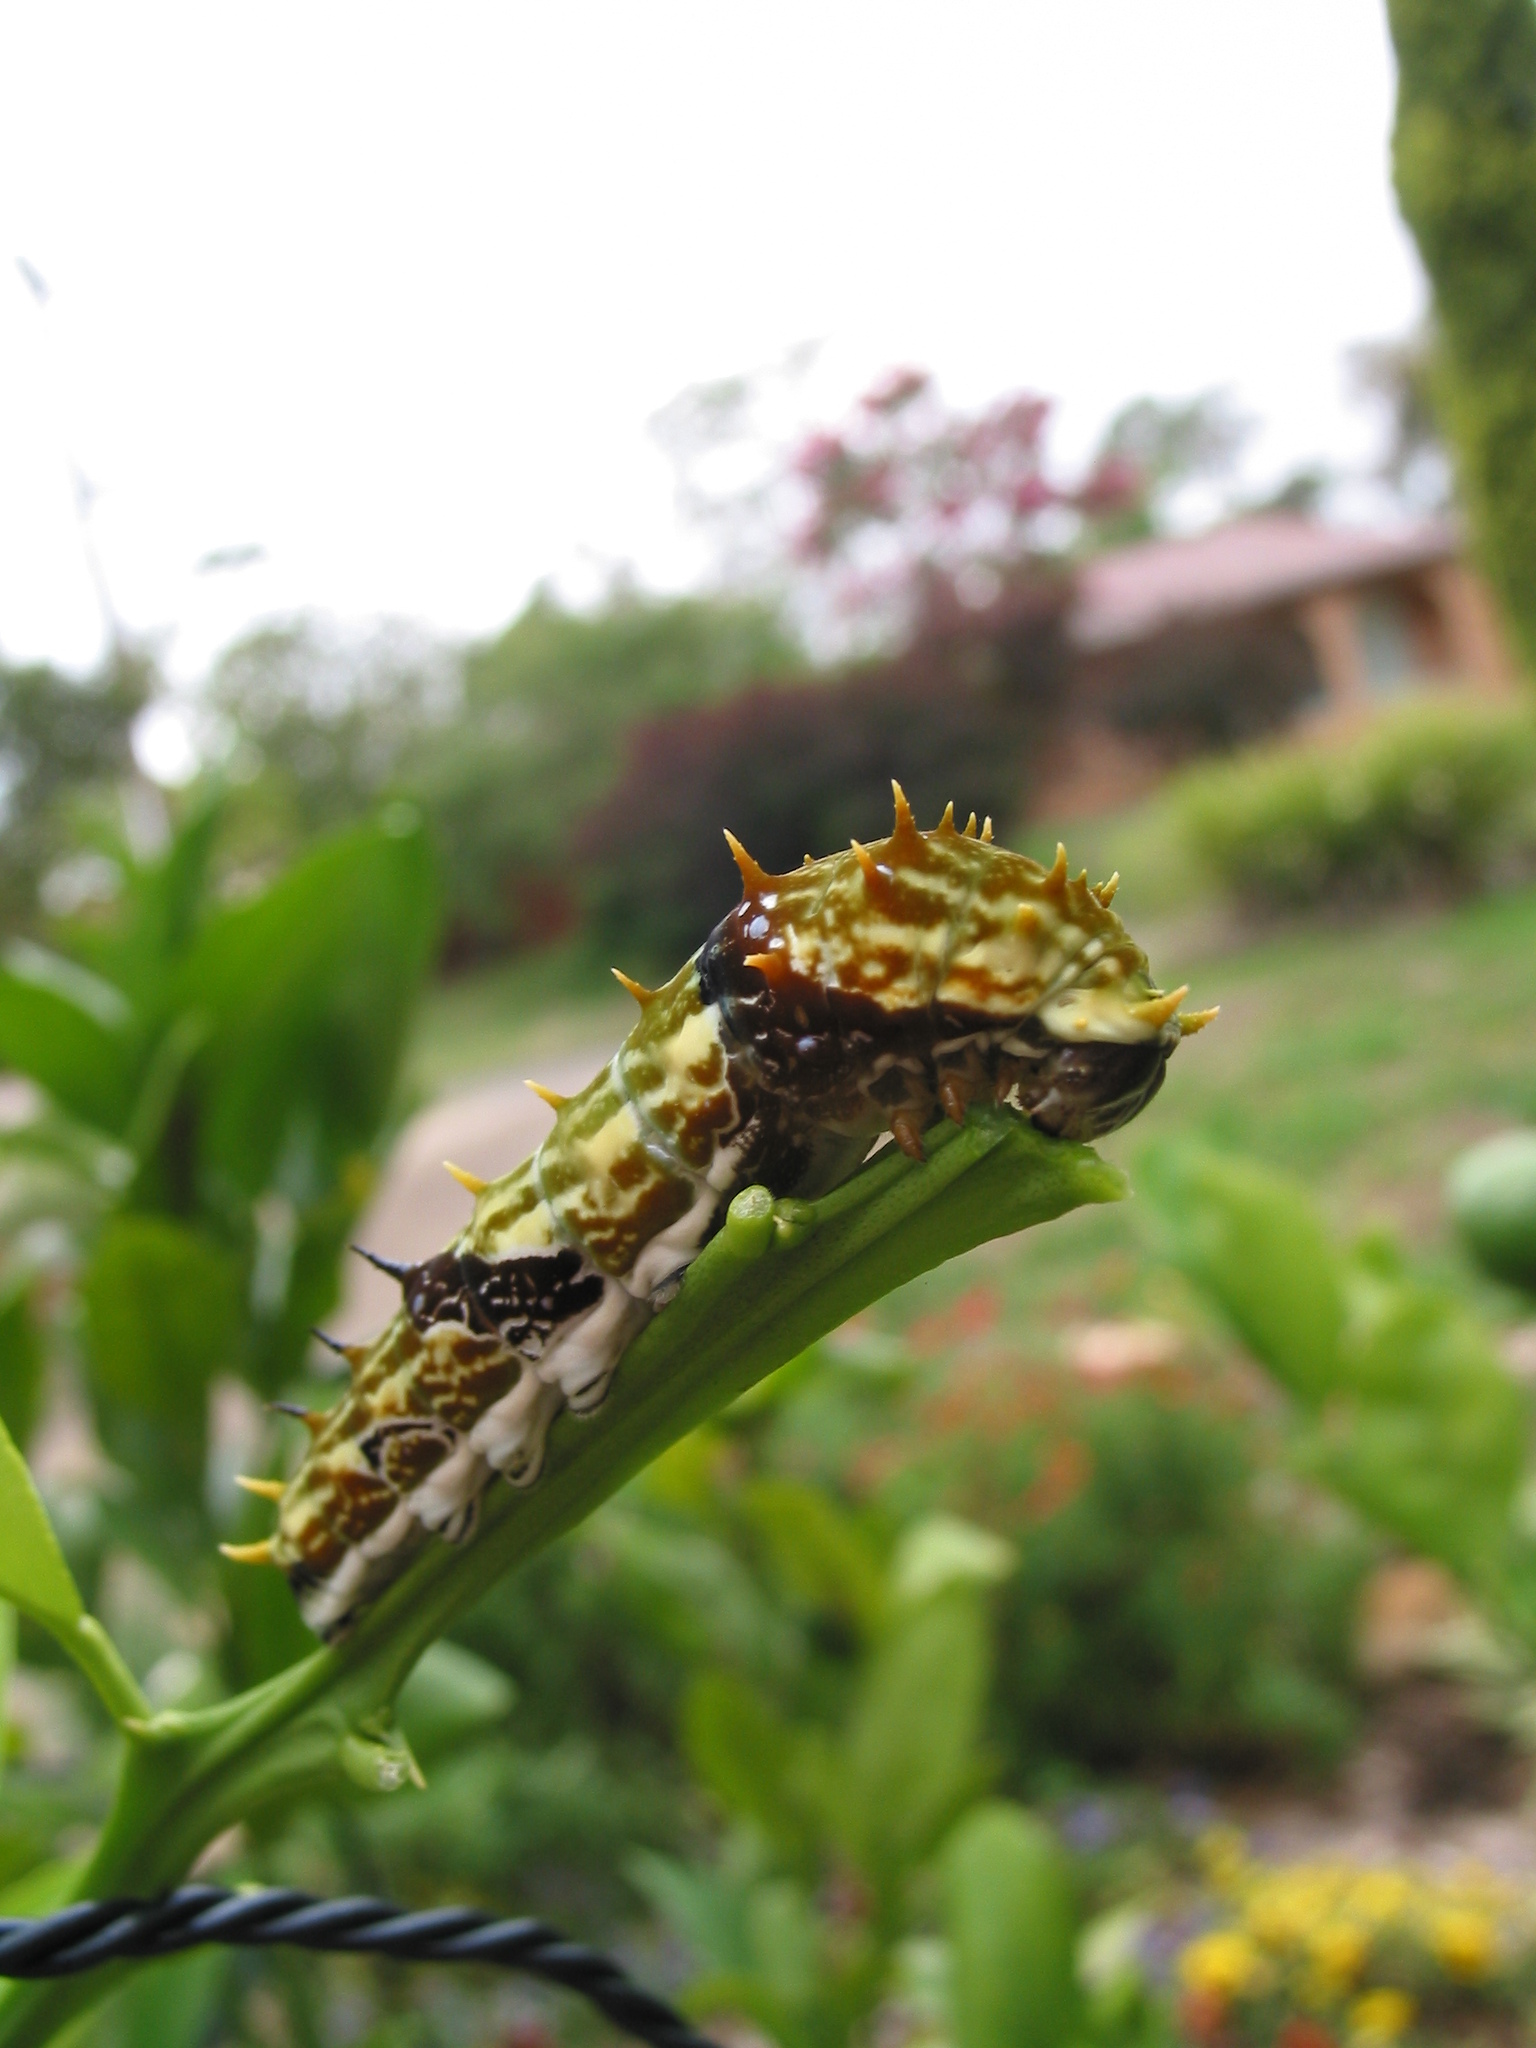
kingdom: Animalia
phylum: Arthropoda
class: Insecta
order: Lepidoptera
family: Papilionidae
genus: Papilio
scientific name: Papilio aegeus
